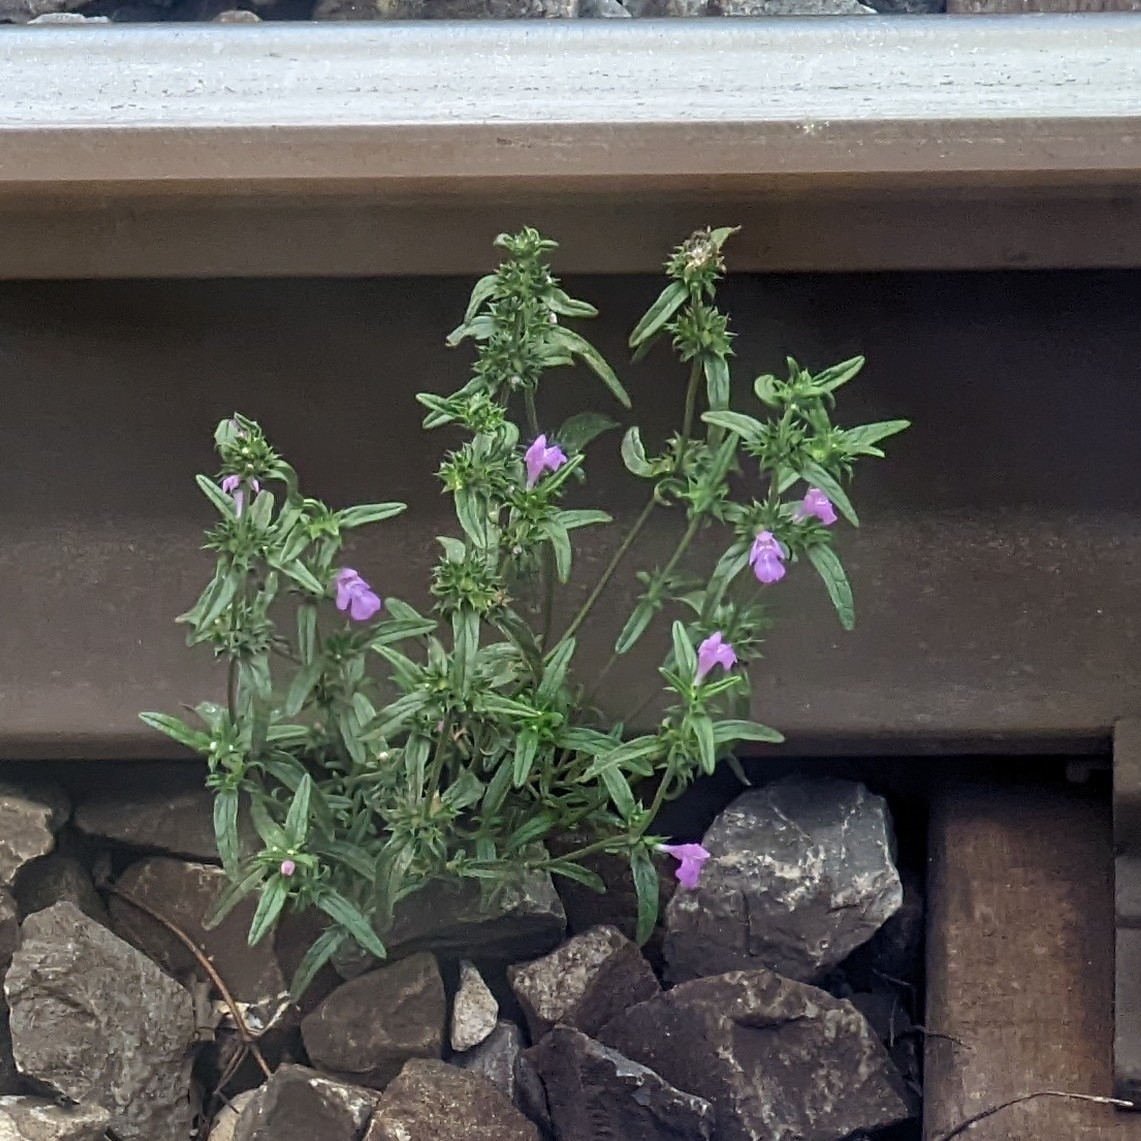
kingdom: Plantae
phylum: Tracheophyta
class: Magnoliopsida
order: Lamiales
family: Lamiaceae
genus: Galeopsis
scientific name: Galeopsis angustifolia
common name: Red hemp-nettle
